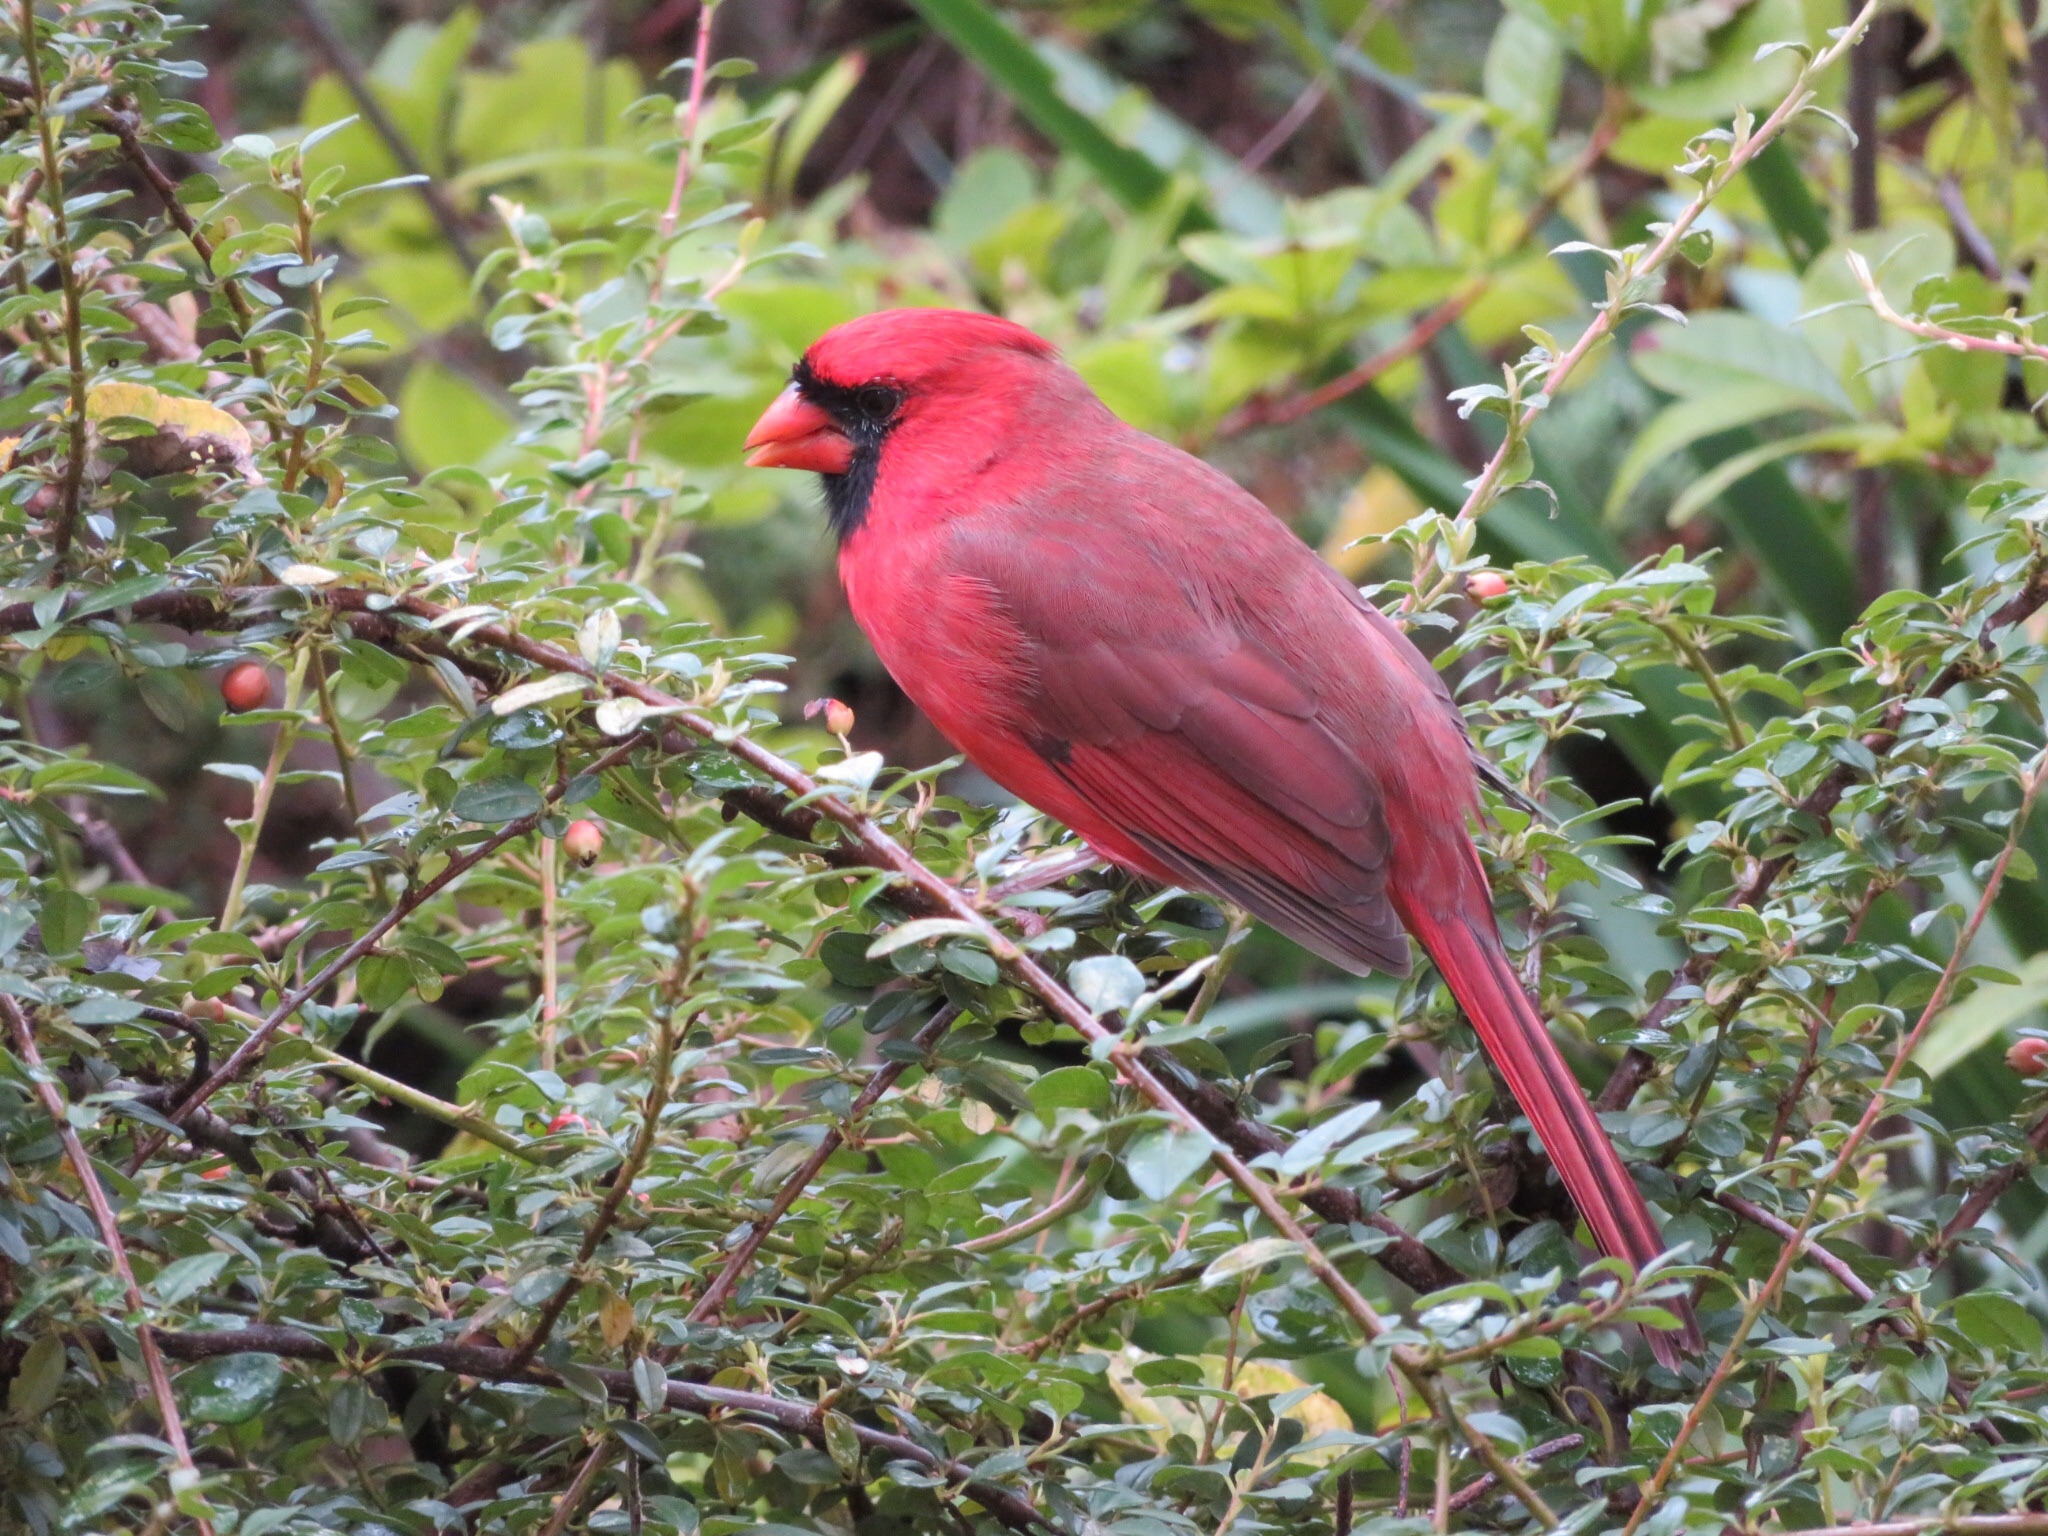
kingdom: Animalia
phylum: Chordata
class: Aves
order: Passeriformes
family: Cardinalidae
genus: Cardinalis
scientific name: Cardinalis cardinalis
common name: Northern cardinal
